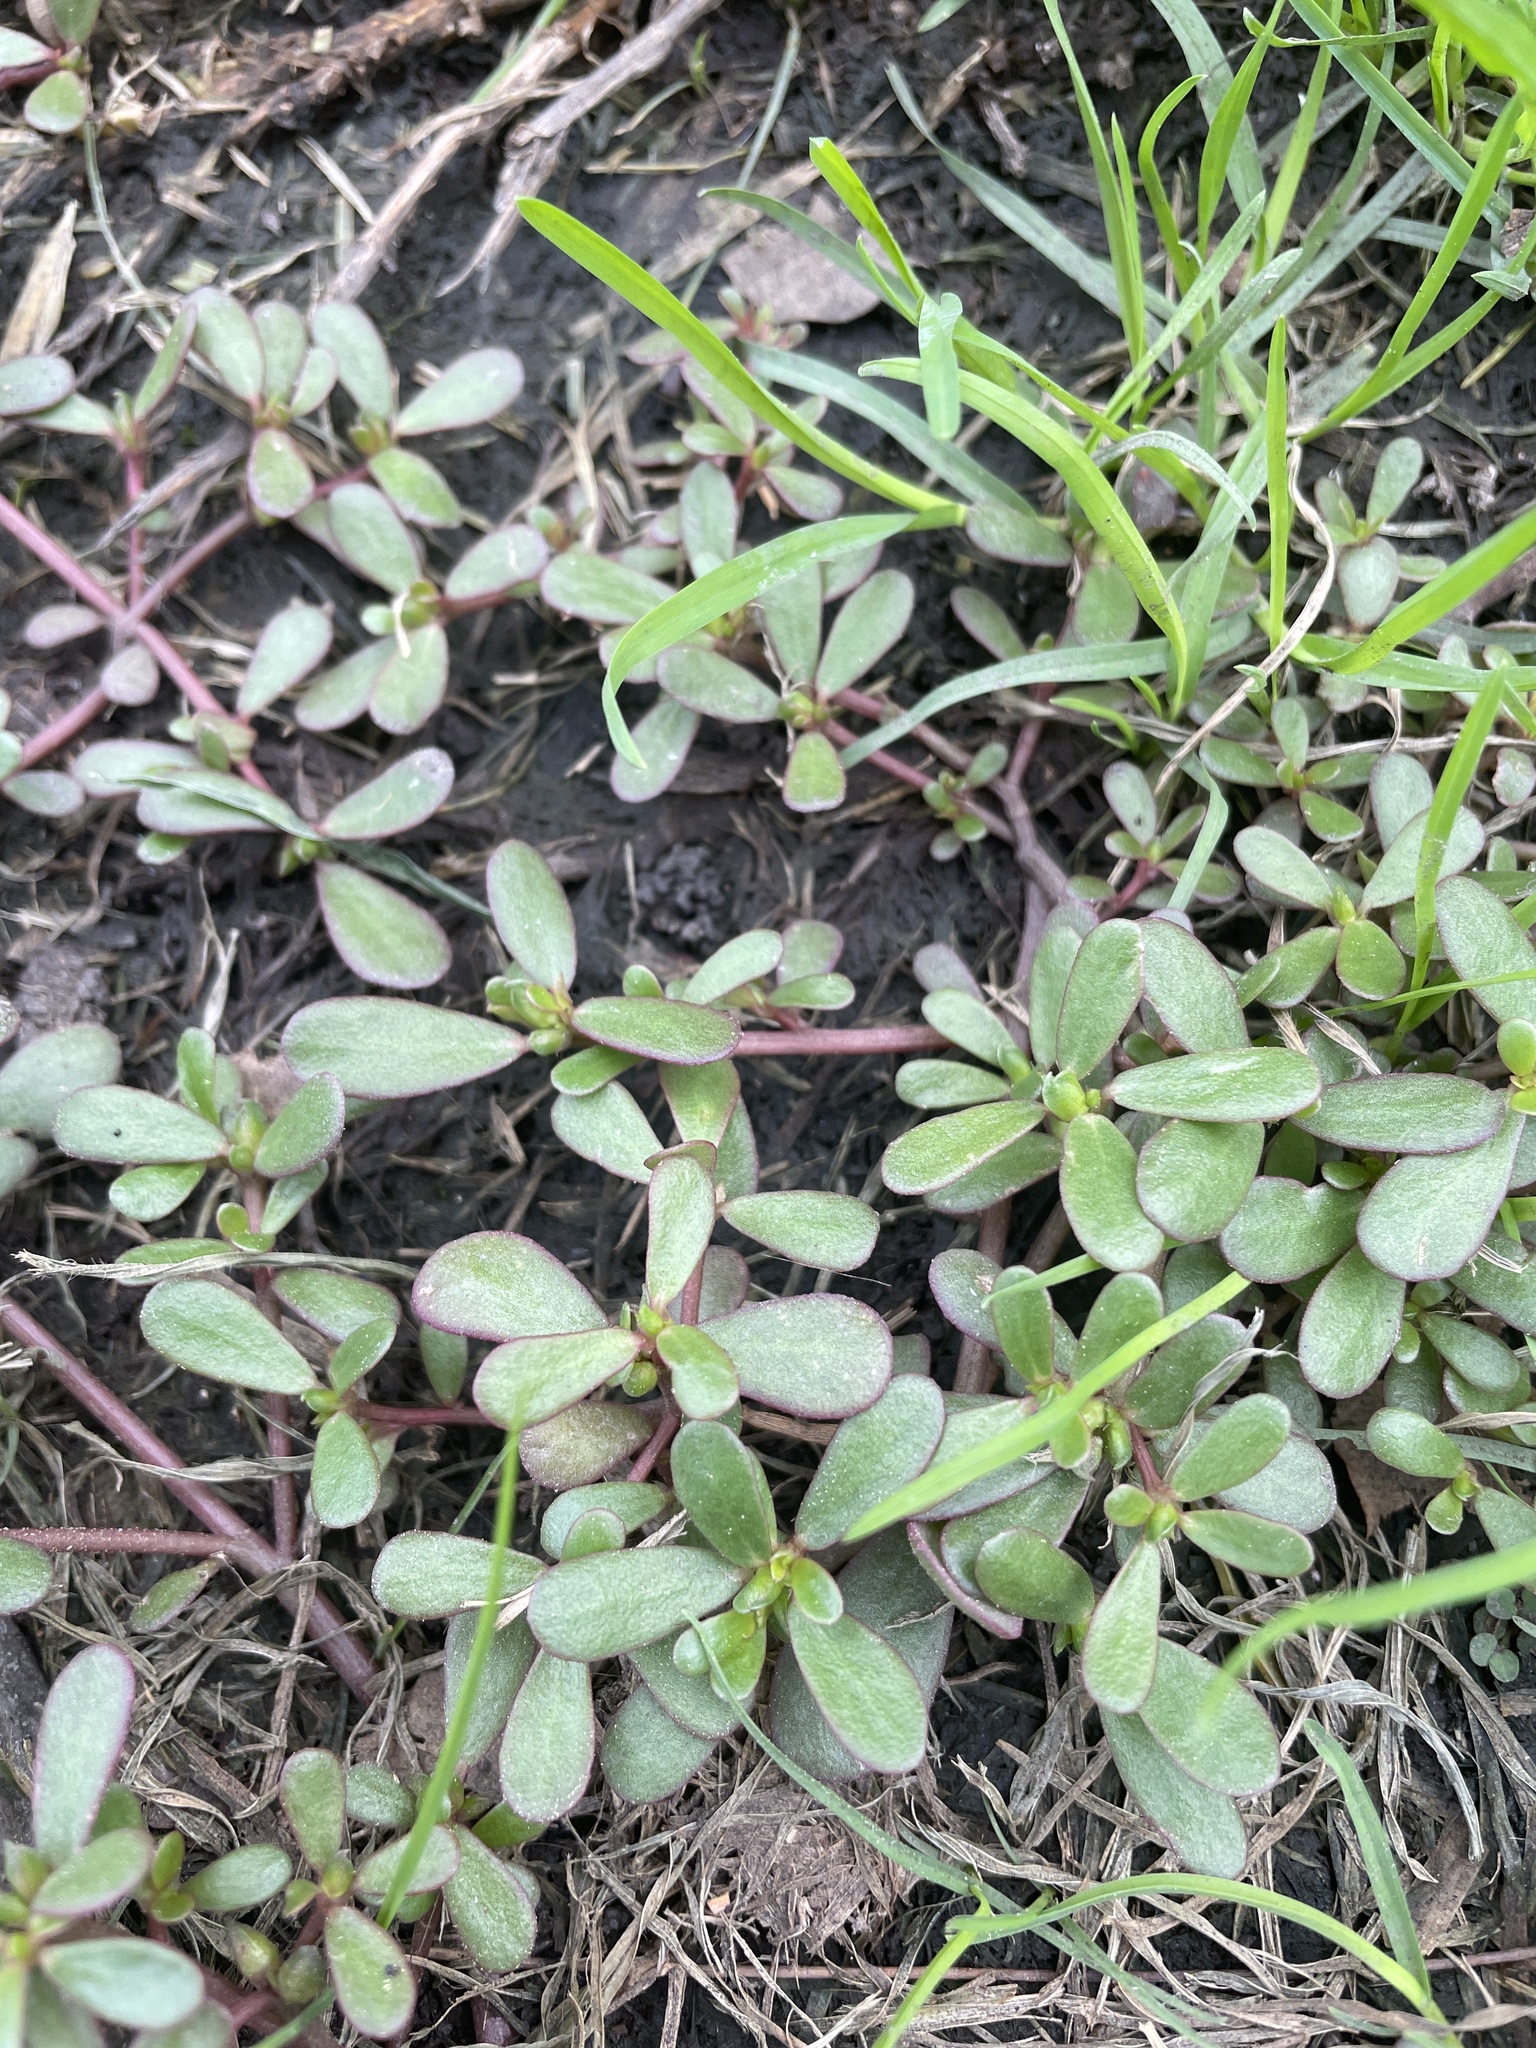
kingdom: Plantae
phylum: Tracheophyta
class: Magnoliopsida
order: Caryophyllales
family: Portulacaceae
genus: Portulaca
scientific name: Portulaca oleracea
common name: Common purslane
